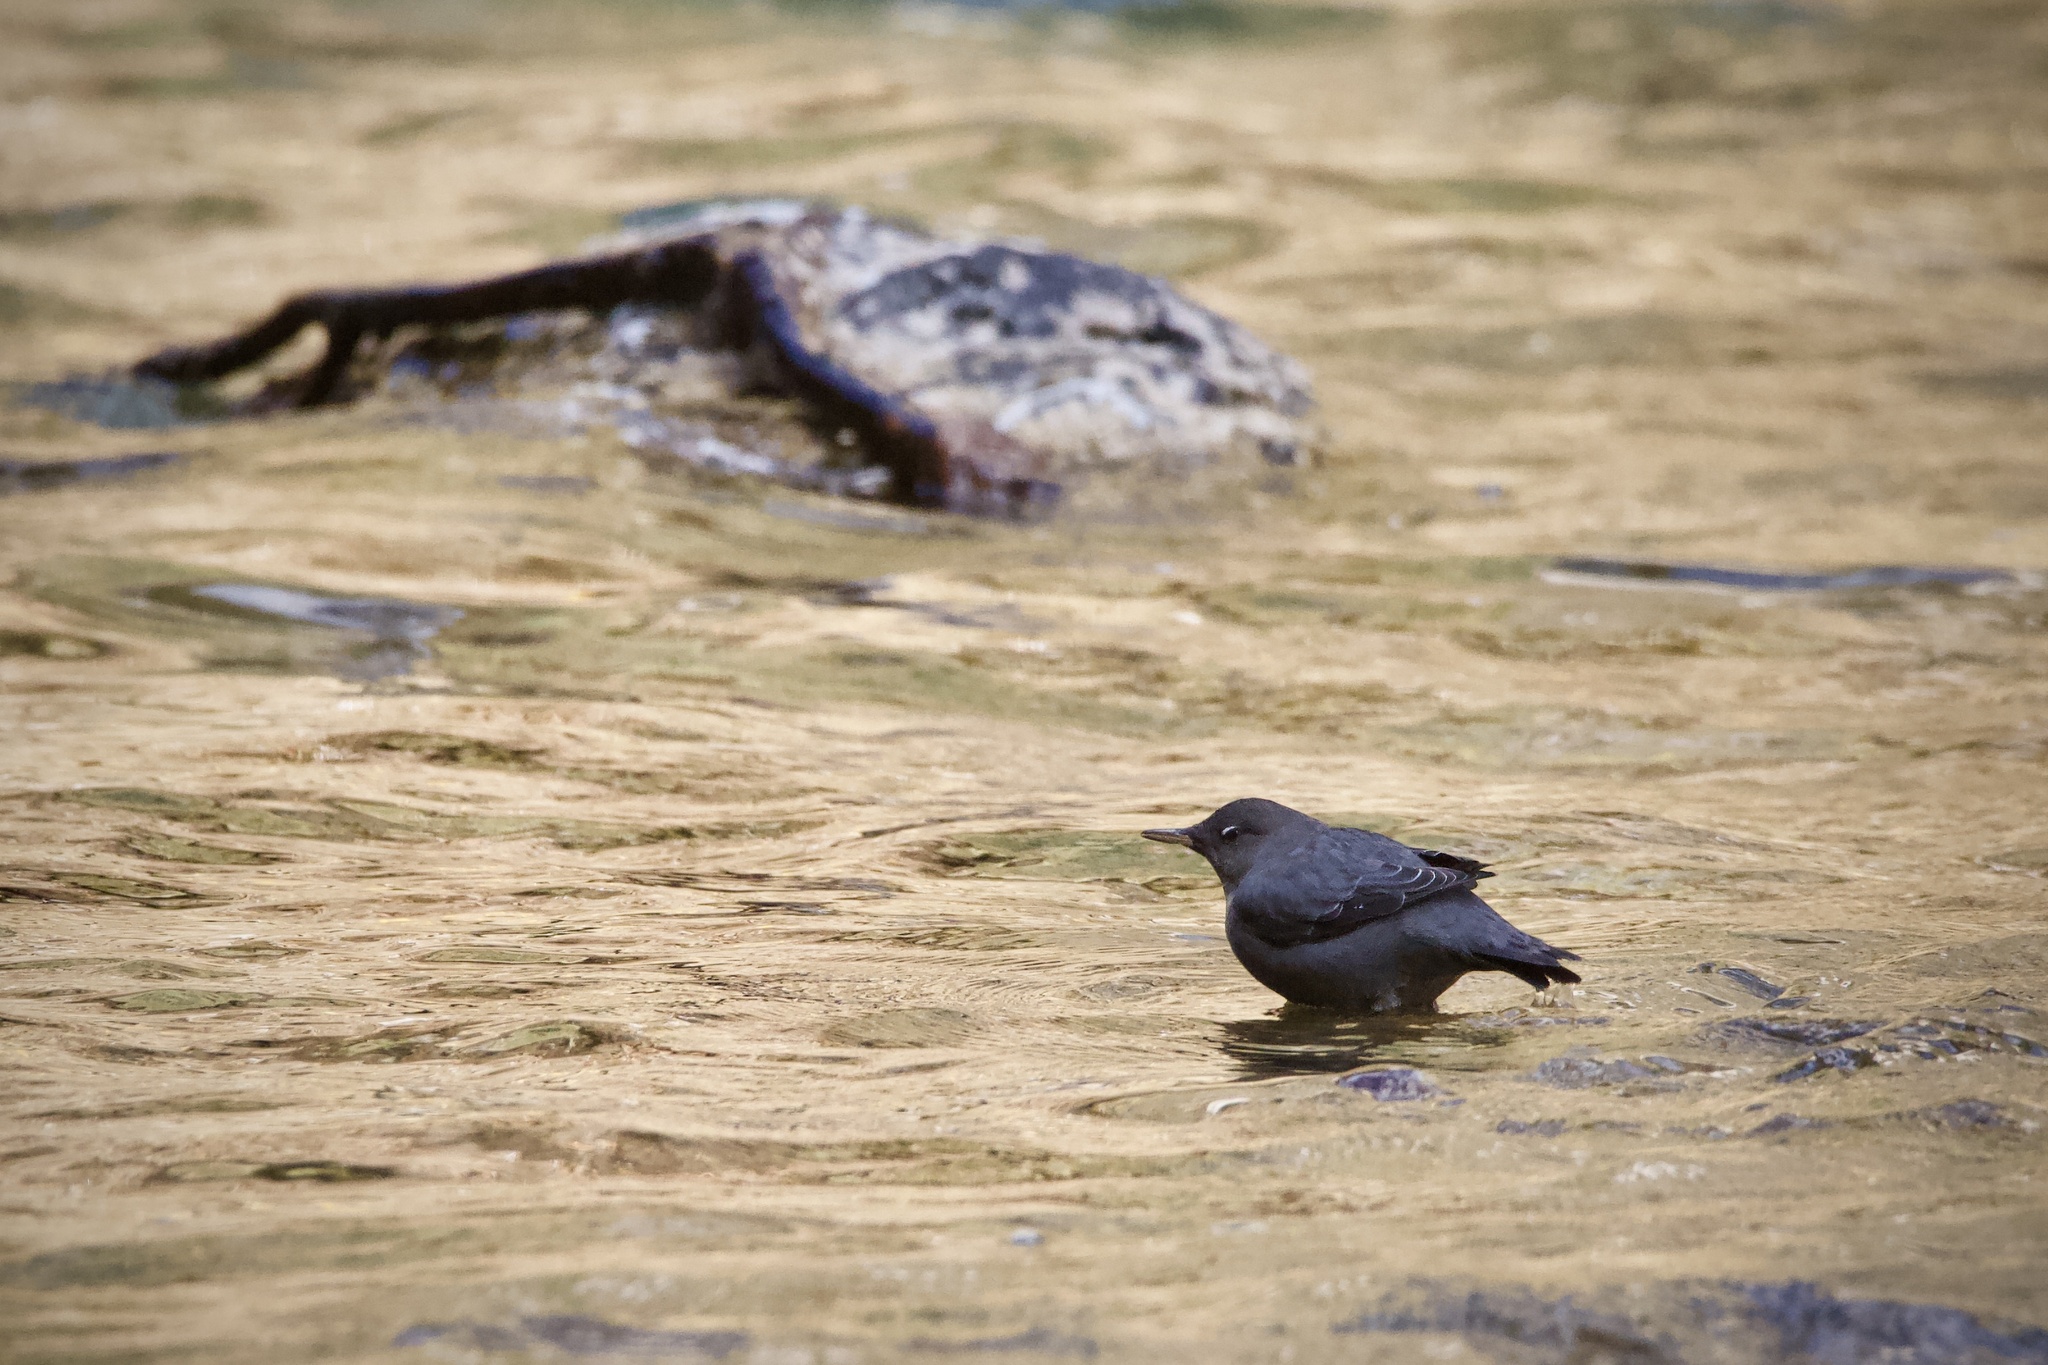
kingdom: Animalia
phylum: Chordata
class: Aves
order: Passeriformes
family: Cinclidae
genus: Cinclus
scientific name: Cinclus mexicanus
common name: American dipper
